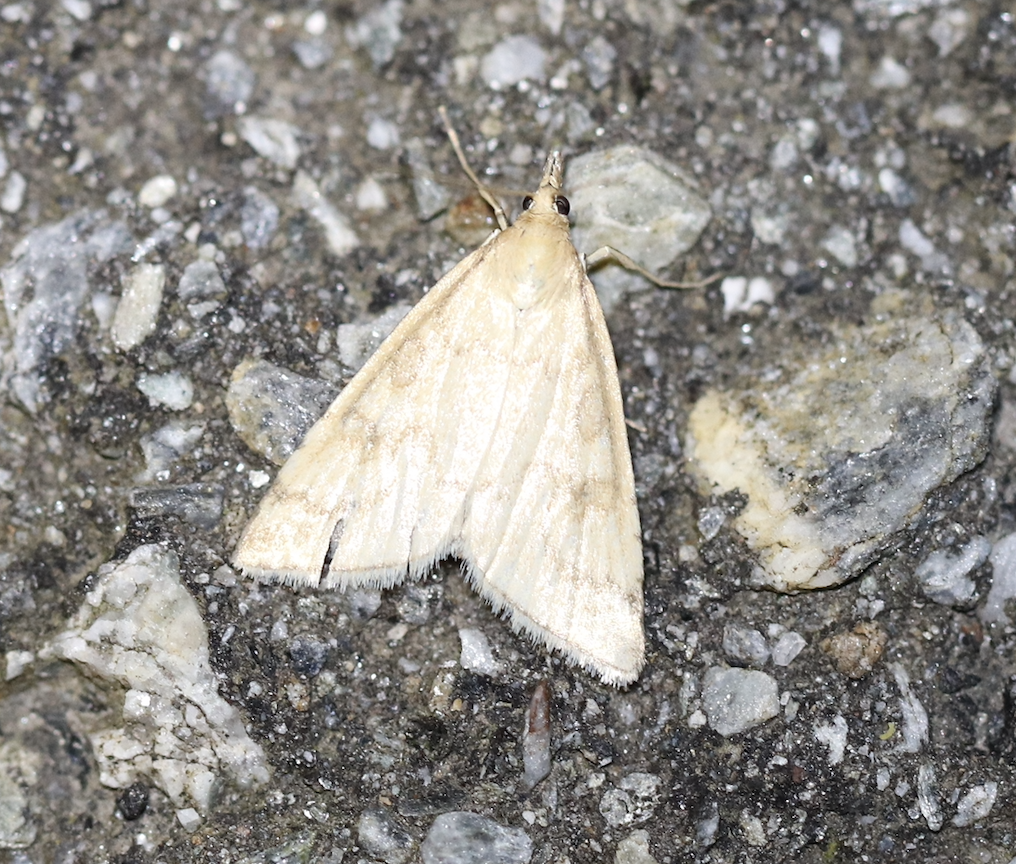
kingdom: Animalia
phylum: Arthropoda
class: Insecta
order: Lepidoptera
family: Crambidae
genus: Udea
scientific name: Udea nebulalis
